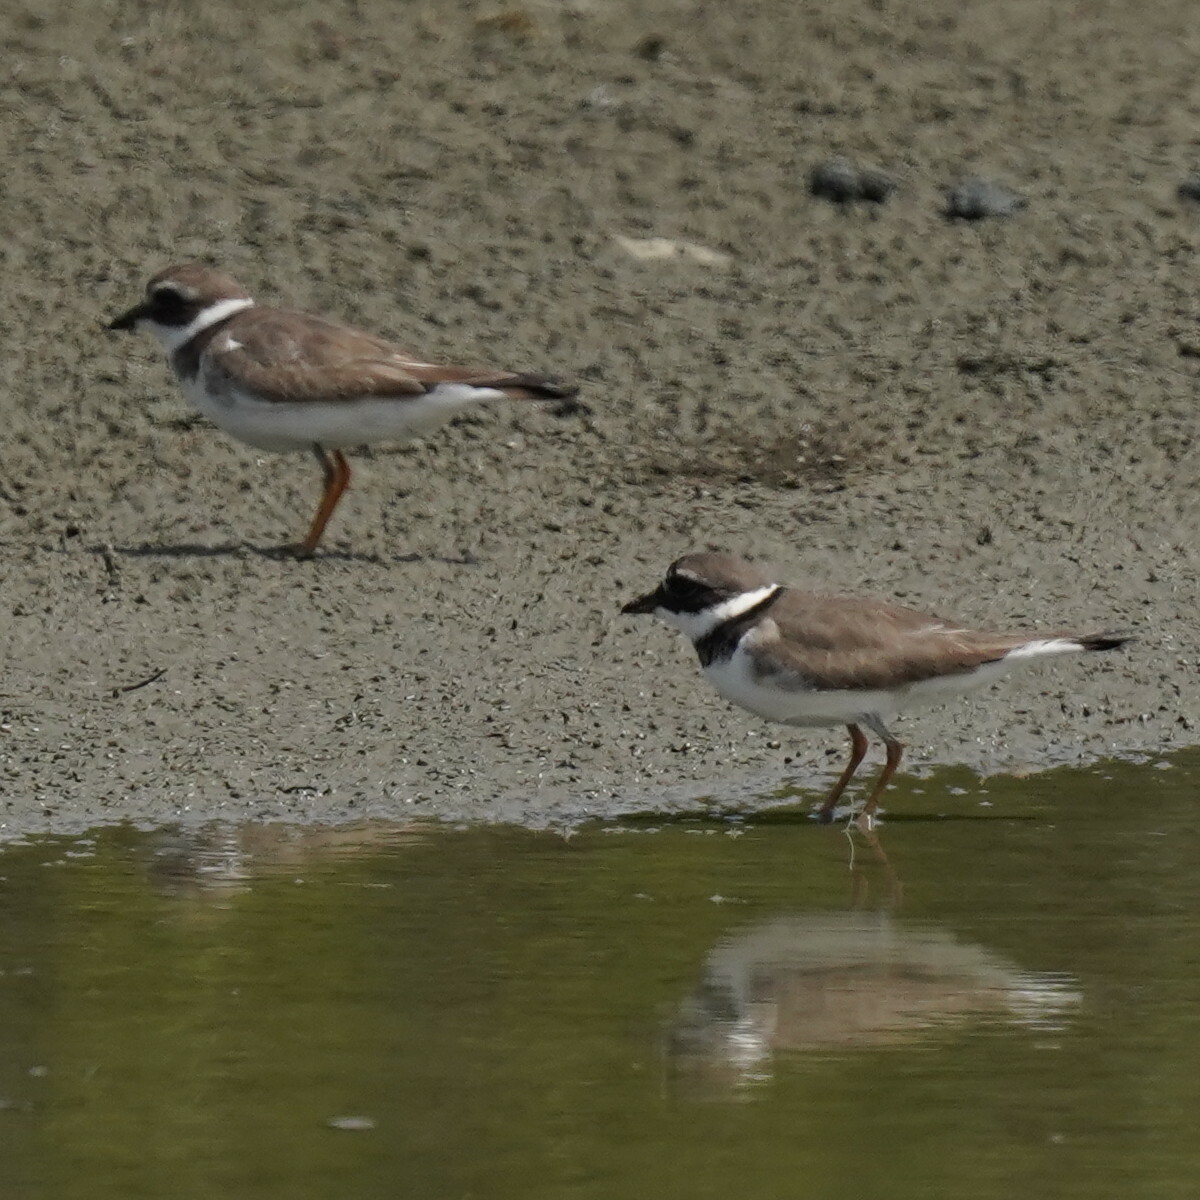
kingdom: Animalia
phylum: Chordata
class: Aves
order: Charadriiformes
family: Charadriidae
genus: Charadrius
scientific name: Charadrius hiaticula
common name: Common ringed plover
